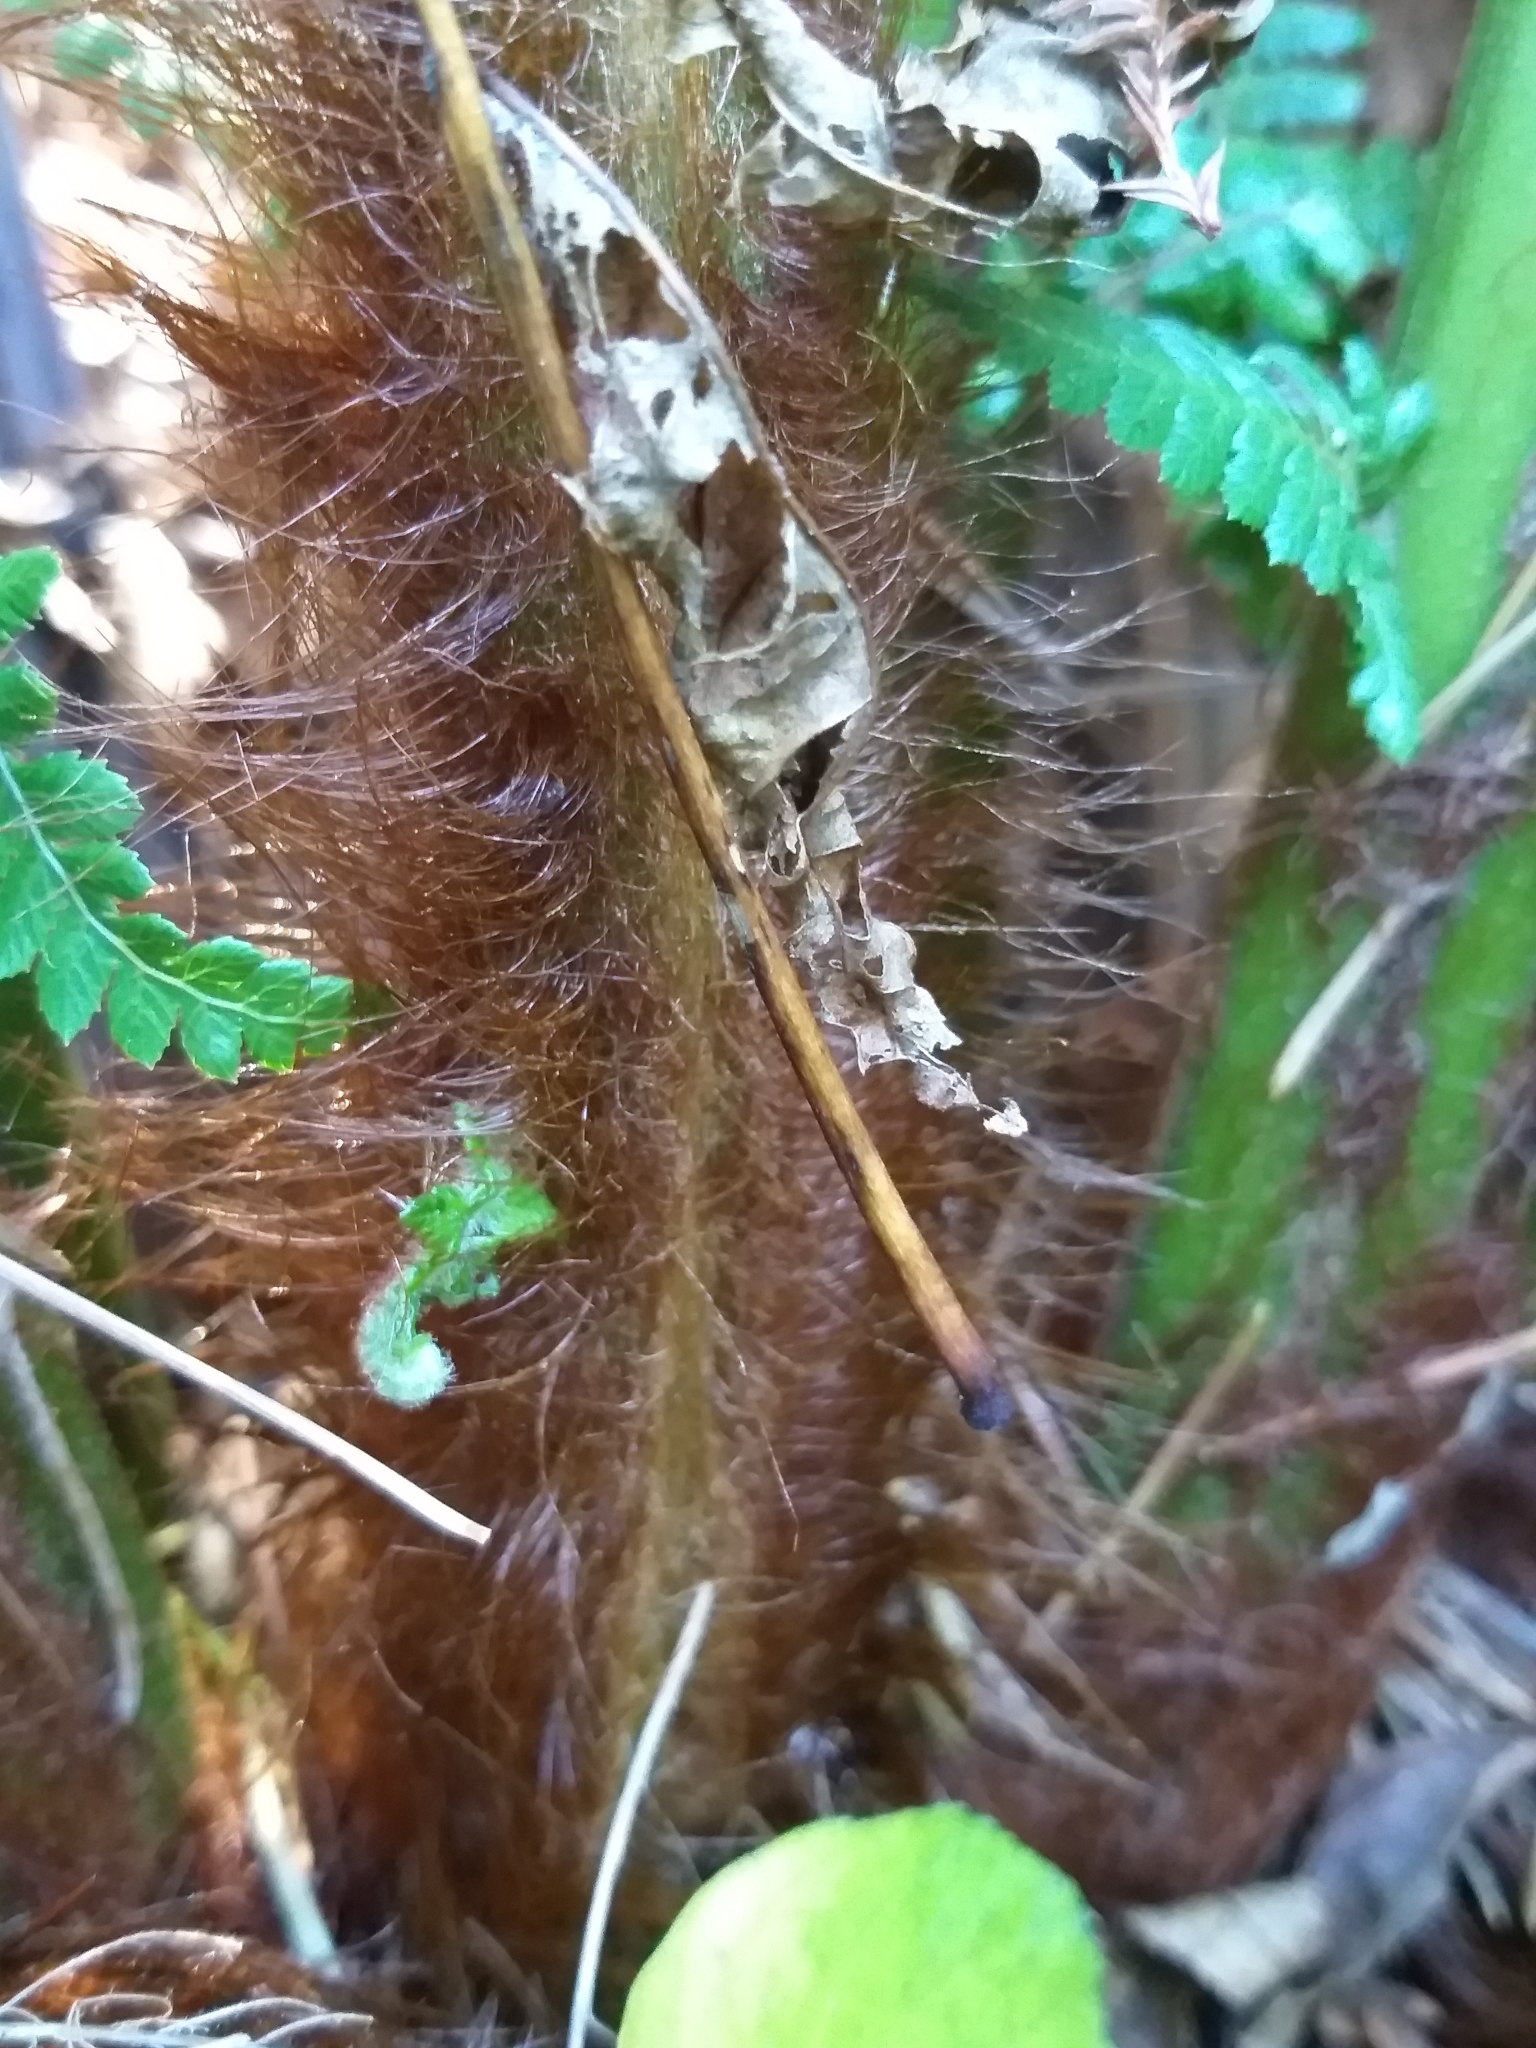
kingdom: Plantae
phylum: Tracheophyta
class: Polypodiopsida
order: Cyatheales
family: Dicksoniaceae
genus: Dicksonia
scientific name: Dicksonia fibrosa
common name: Golden tree fern
